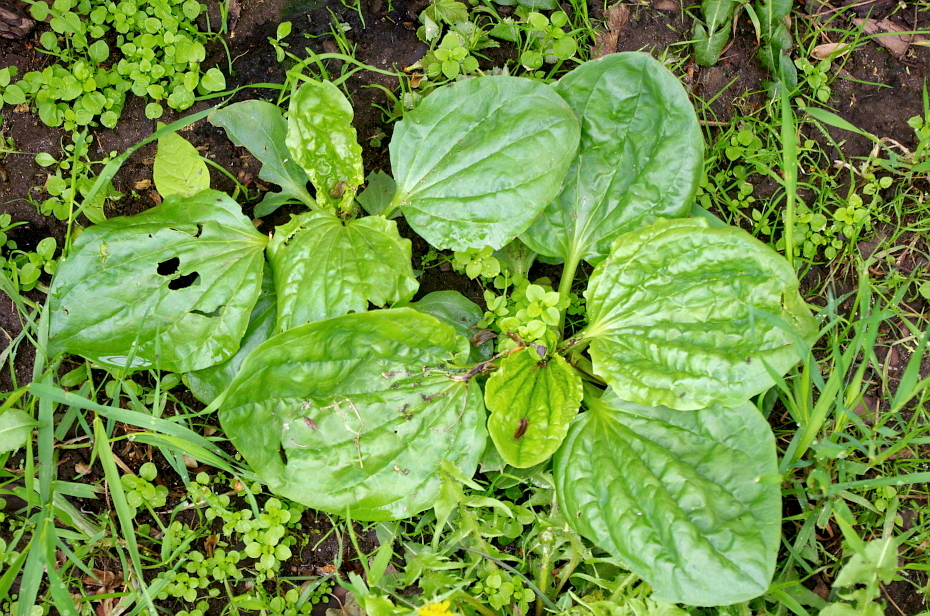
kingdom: Plantae
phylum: Tracheophyta
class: Magnoliopsida
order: Lamiales
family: Plantaginaceae
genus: Plantago
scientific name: Plantago major
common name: Common plantain
